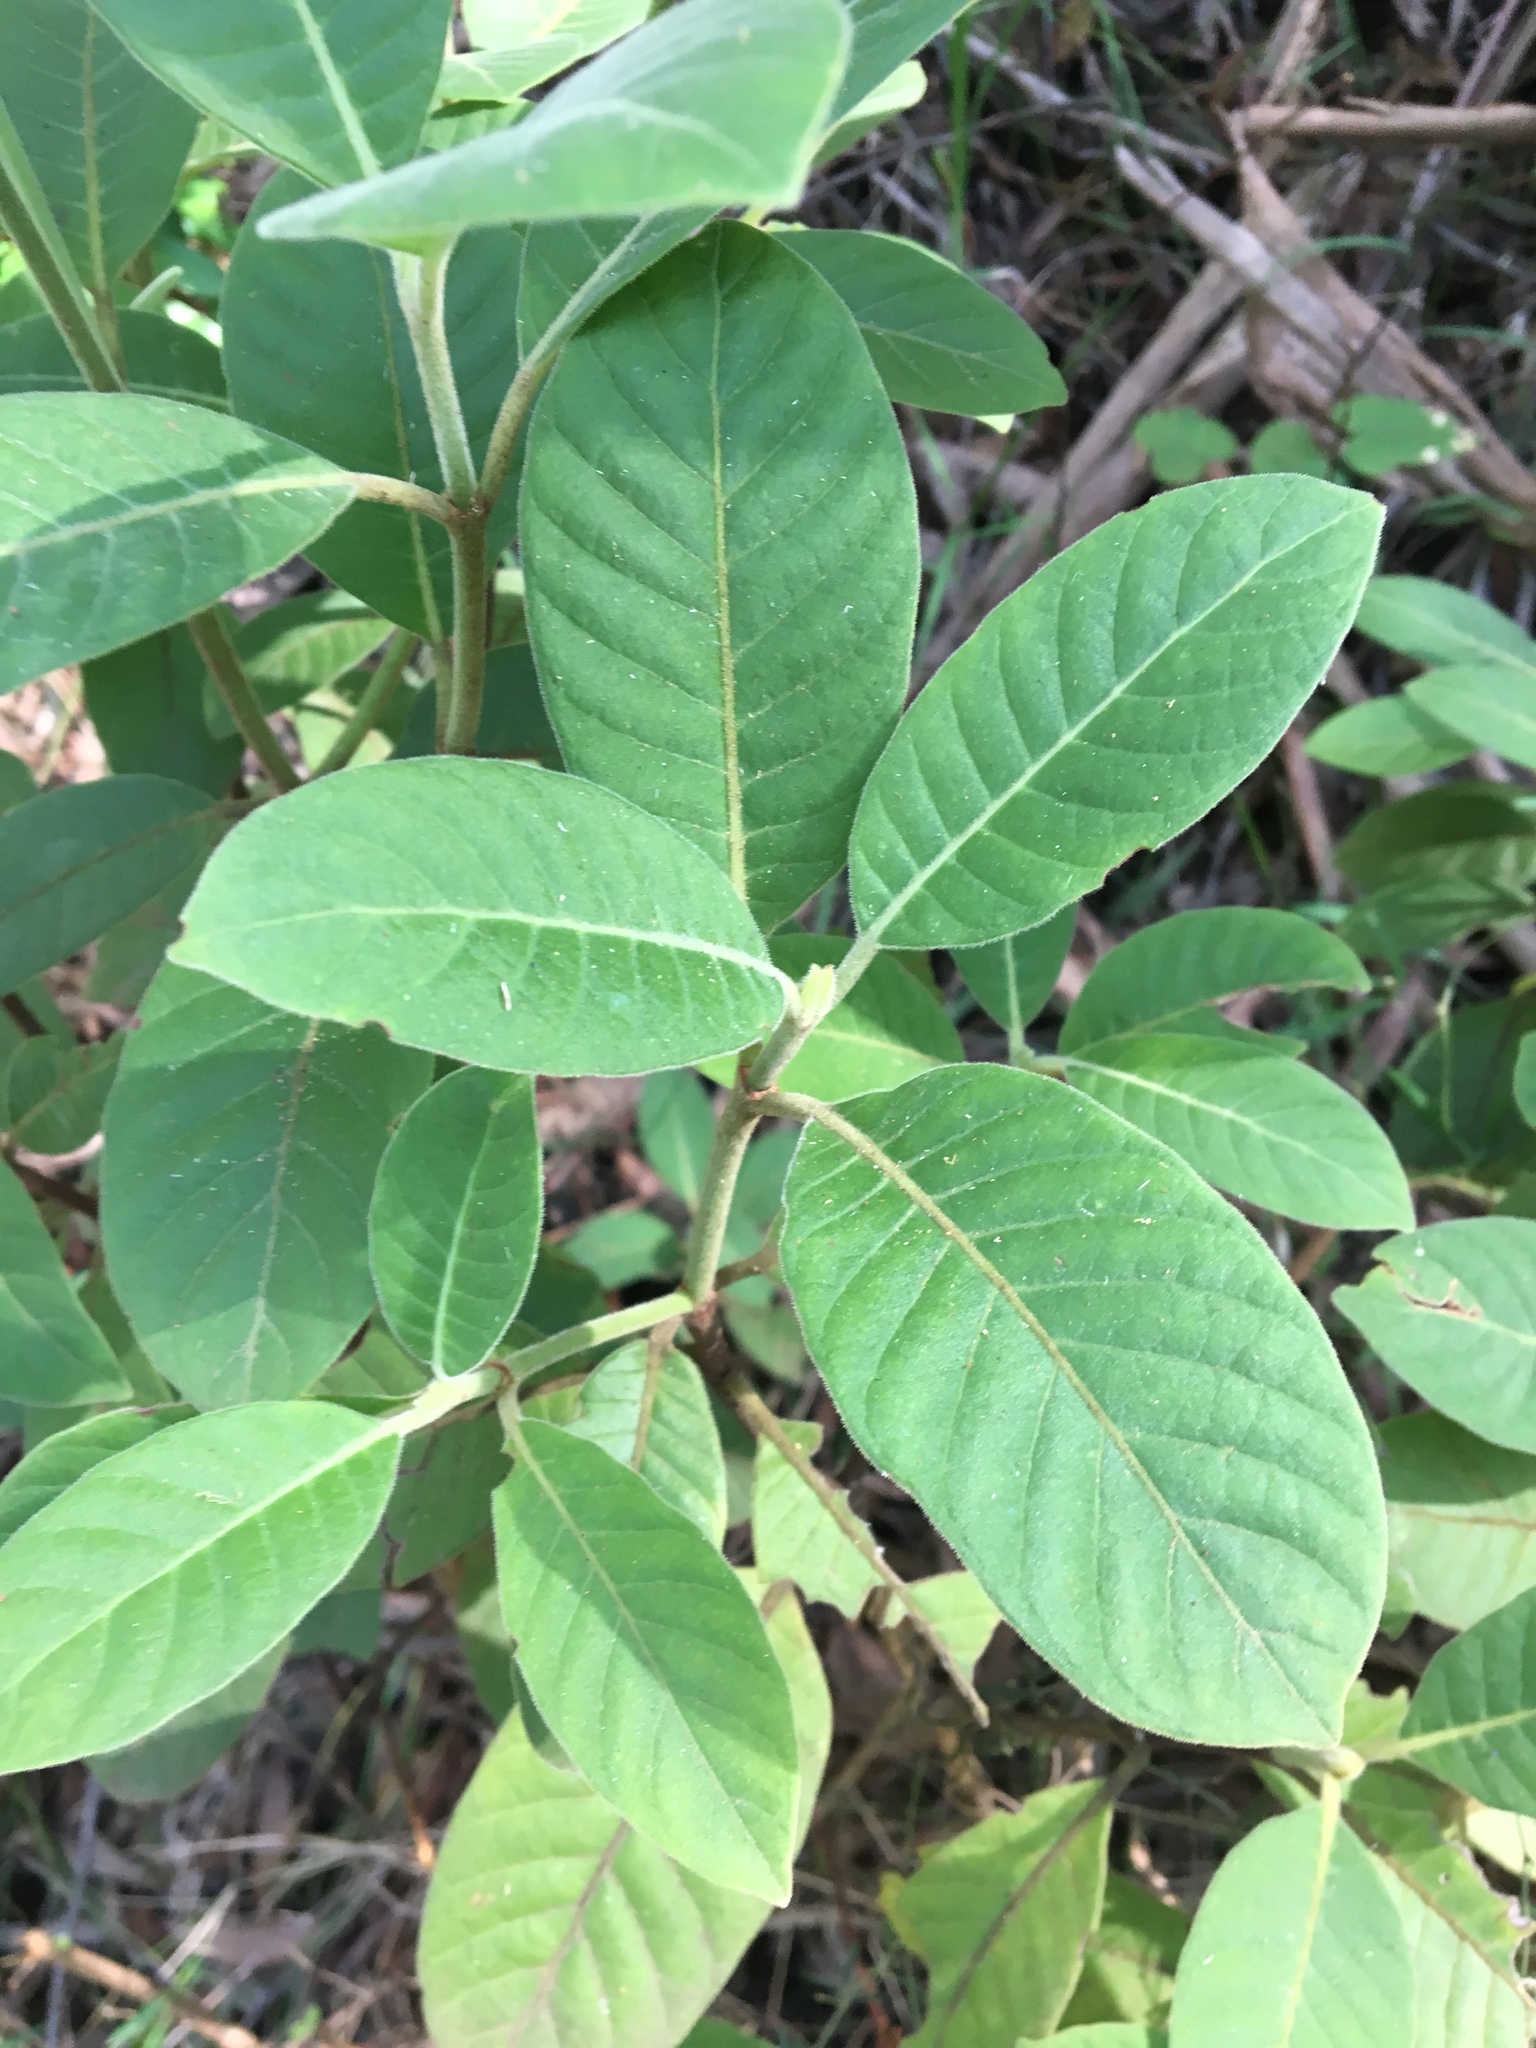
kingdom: Plantae
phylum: Tracheophyta
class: Magnoliopsida
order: Gentianales
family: Rubiaceae
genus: Psychotria
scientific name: Psychotria loniceroides
